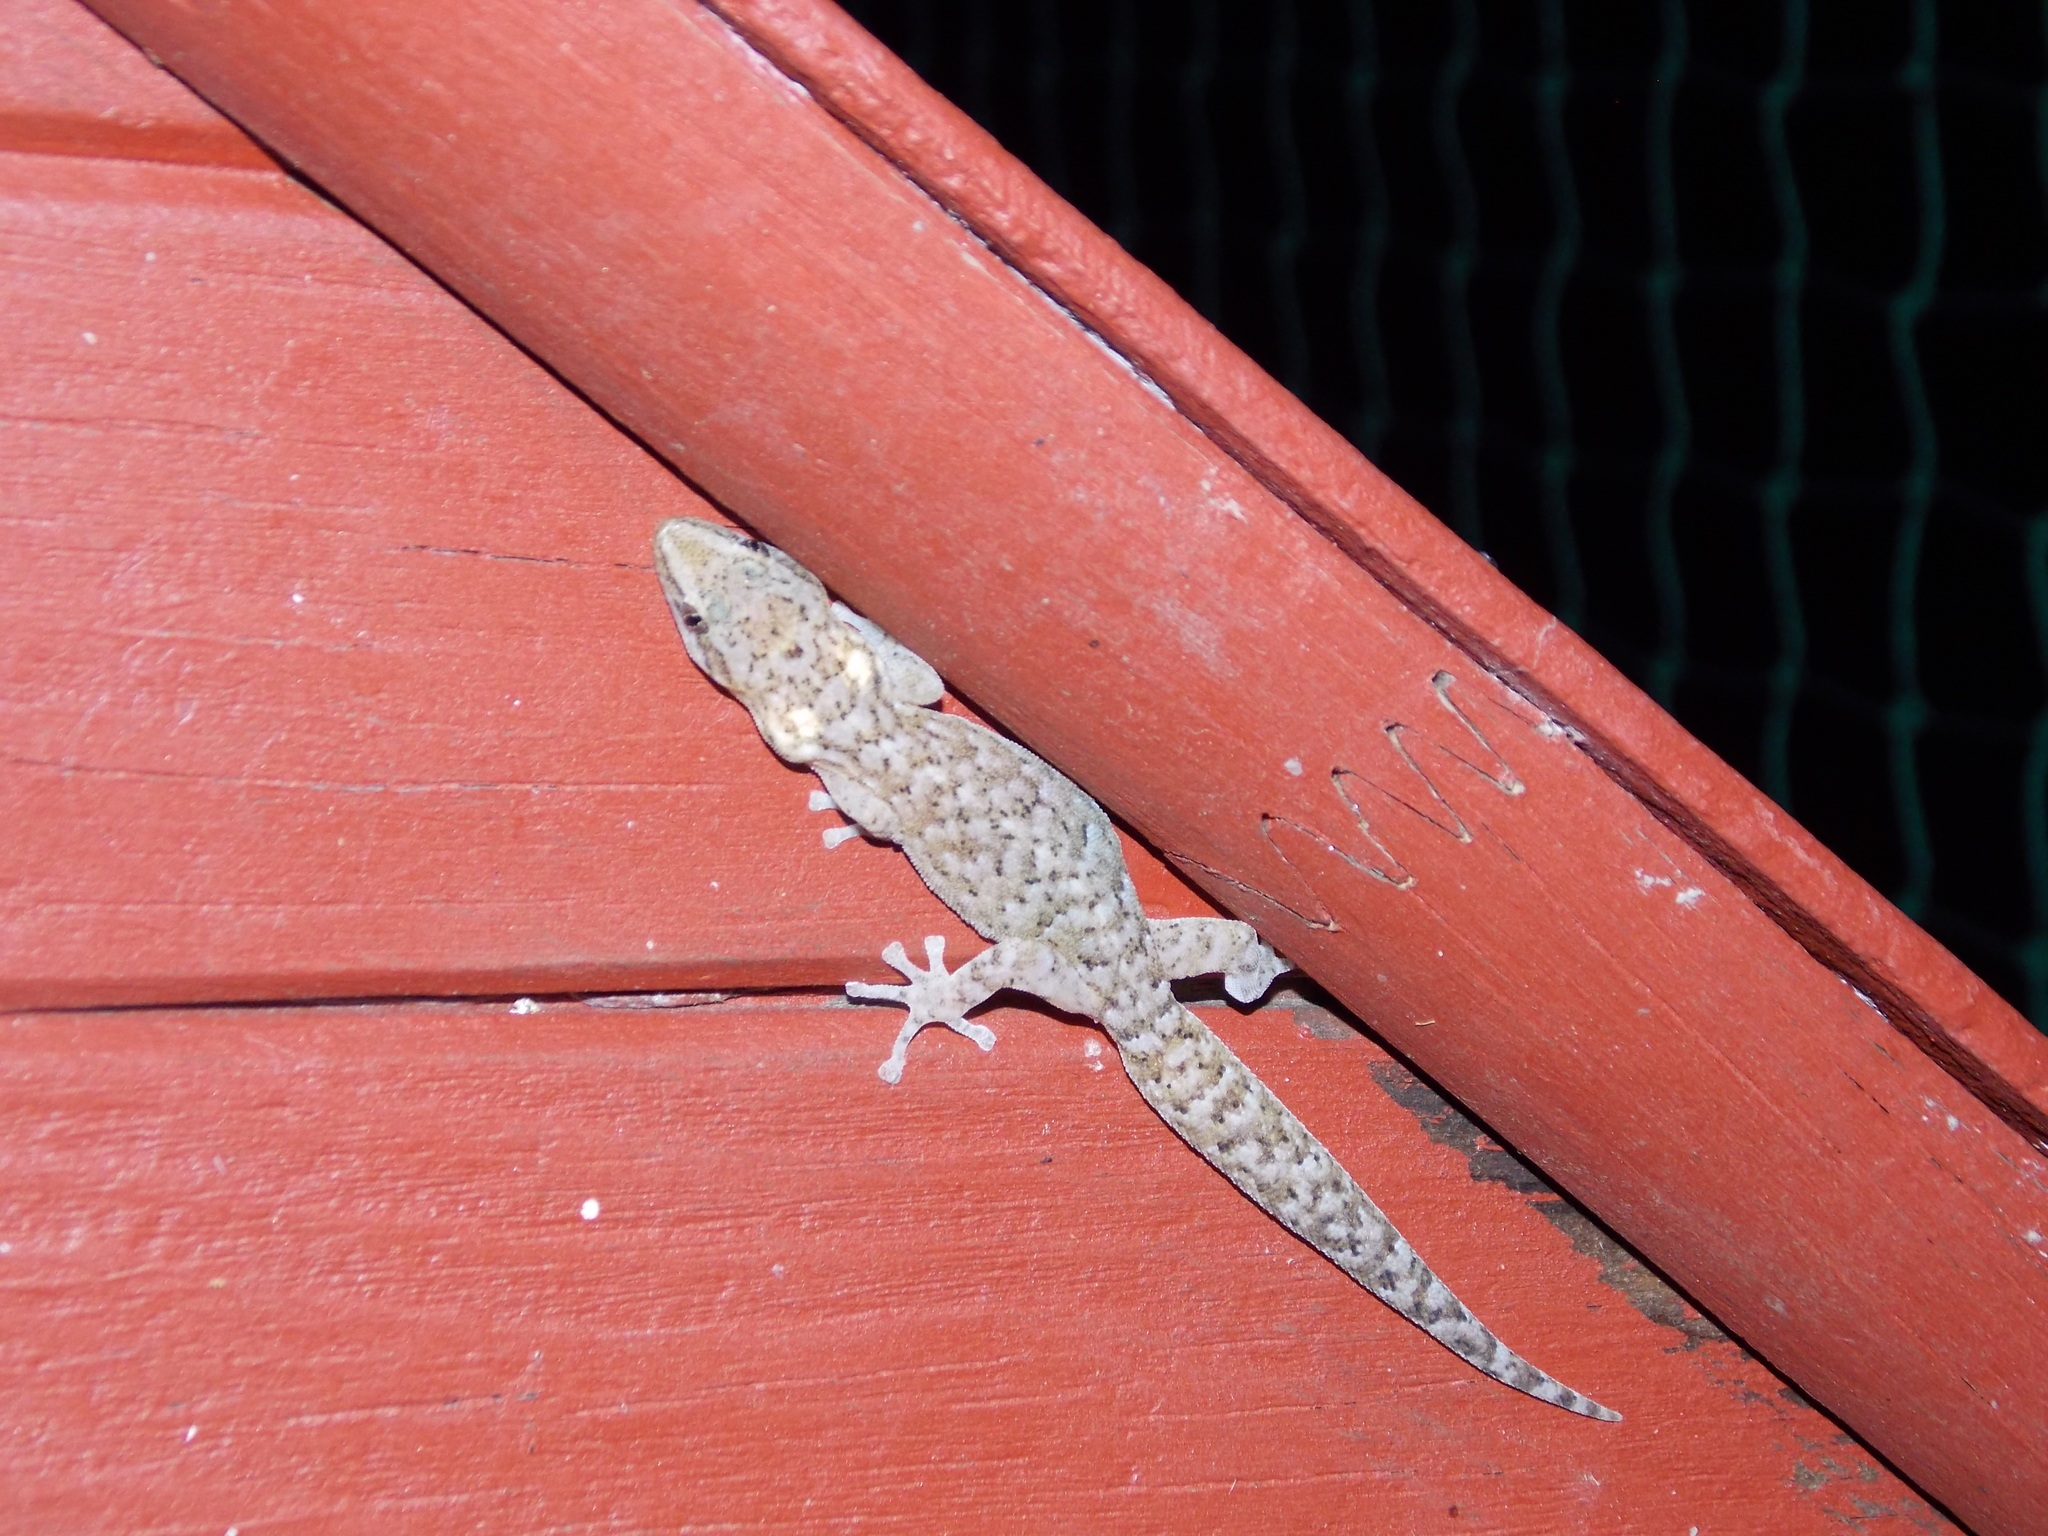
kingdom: Animalia
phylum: Chordata
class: Squamata
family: Gekkonidae
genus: Afrogecko
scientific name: Afrogecko porphyreus
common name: Marbled leaf-toed gecko
